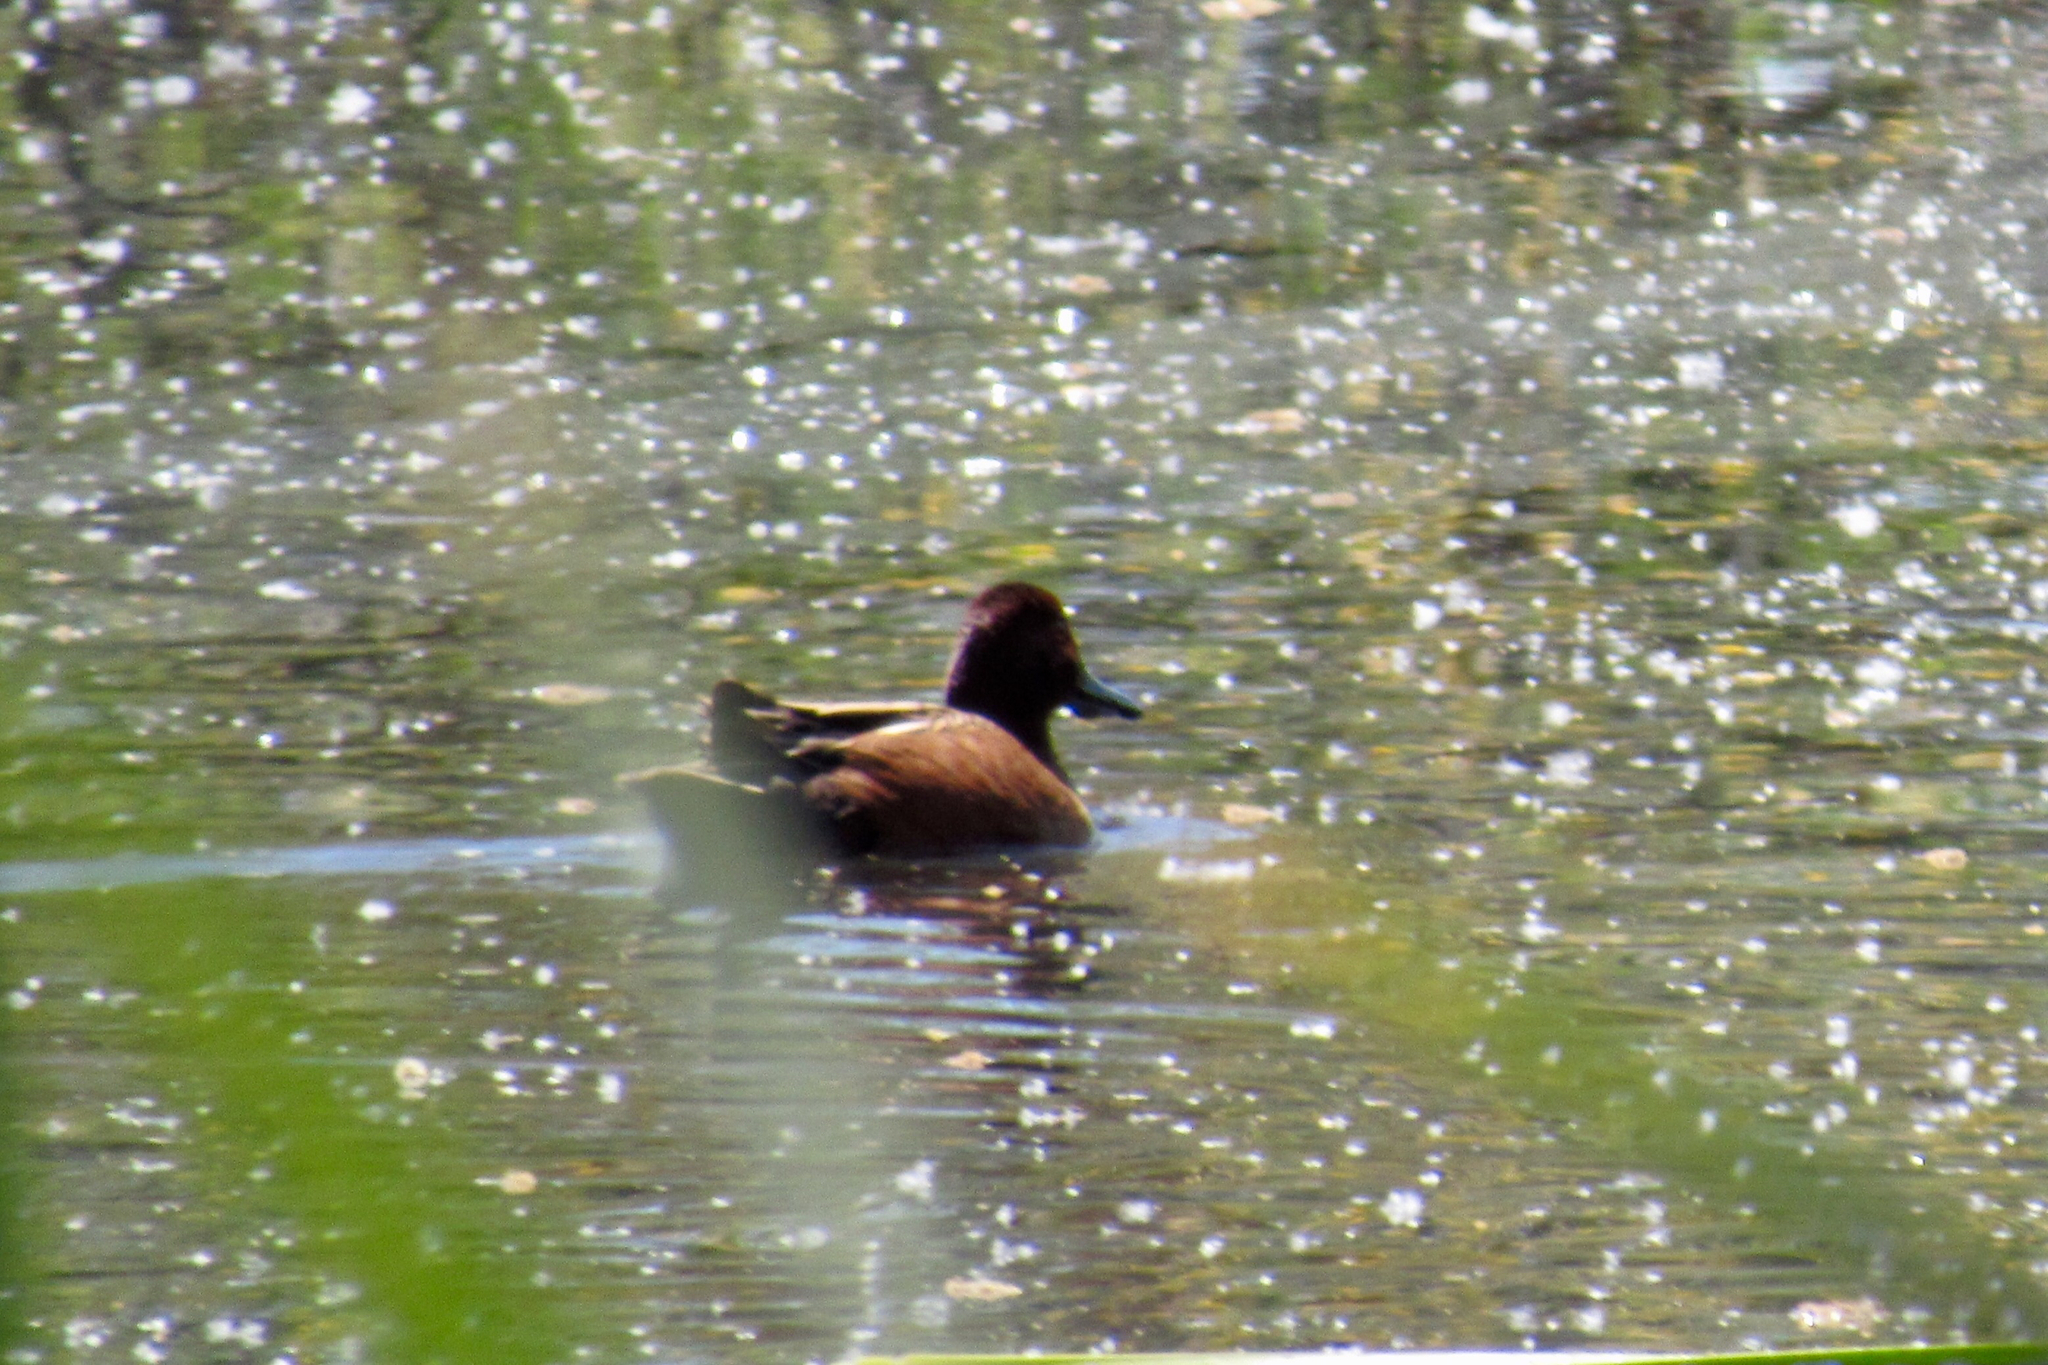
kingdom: Animalia
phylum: Chordata
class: Aves
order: Anseriformes
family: Anatidae
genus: Spatula
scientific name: Spatula cyanoptera
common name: Cinnamon teal
